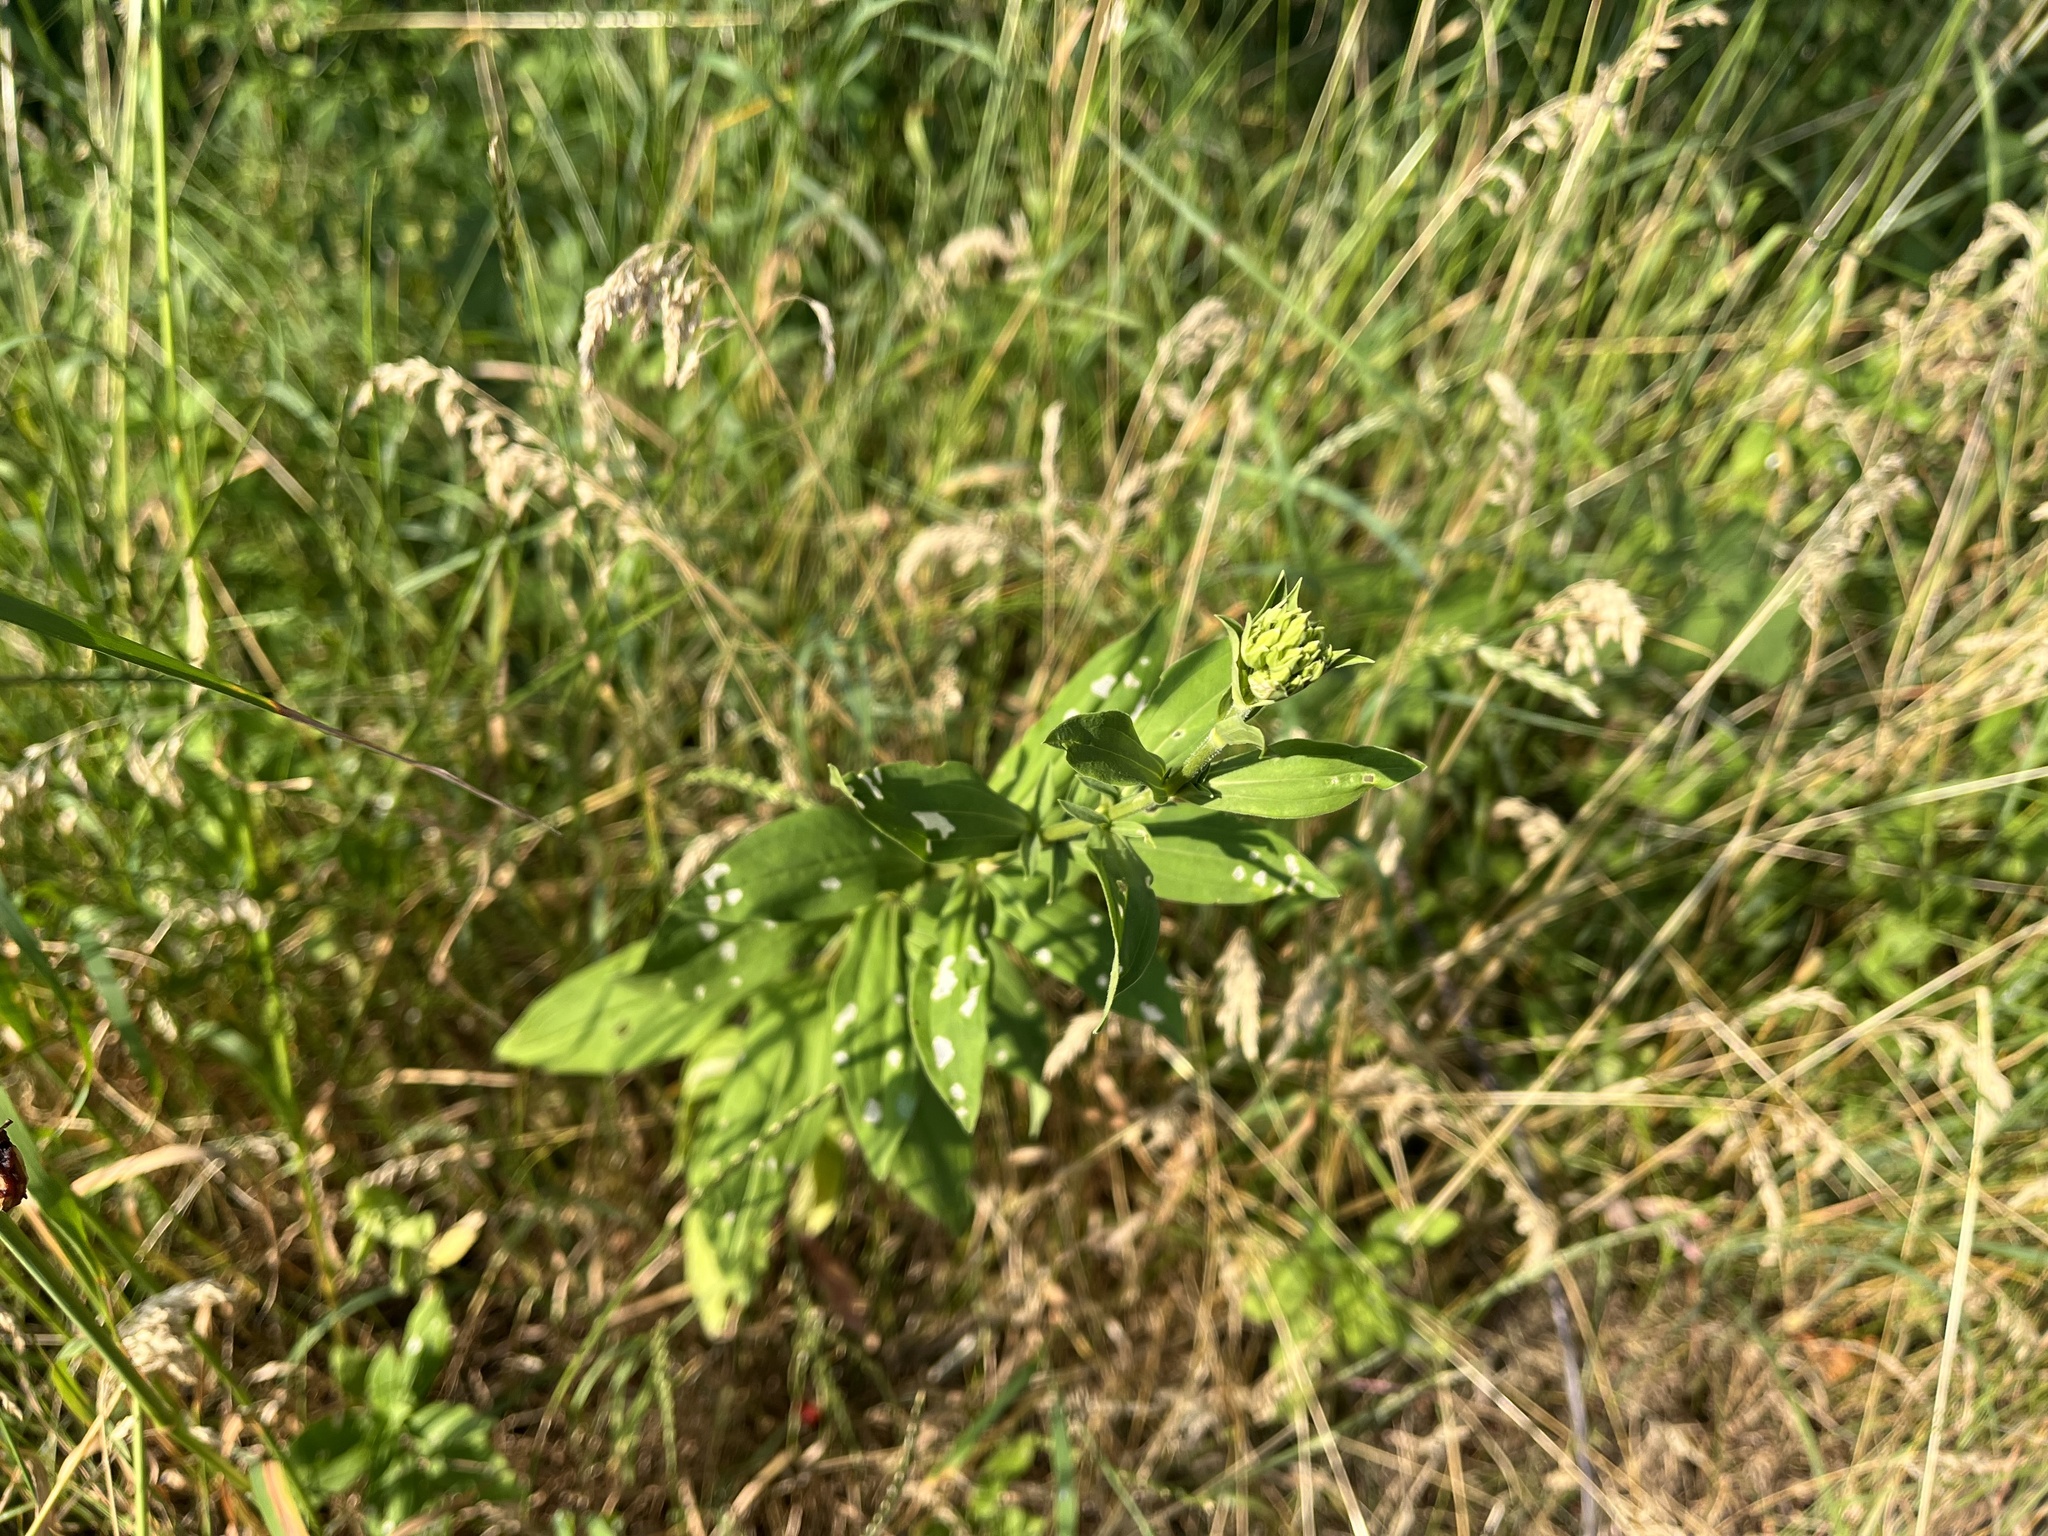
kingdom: Plantae
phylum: Tracheophyta
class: Magnoliopsida
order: Caryophyllales
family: Caryophyllaceae
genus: Saponaria
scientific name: Saponaria officinalis
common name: Soapwort
